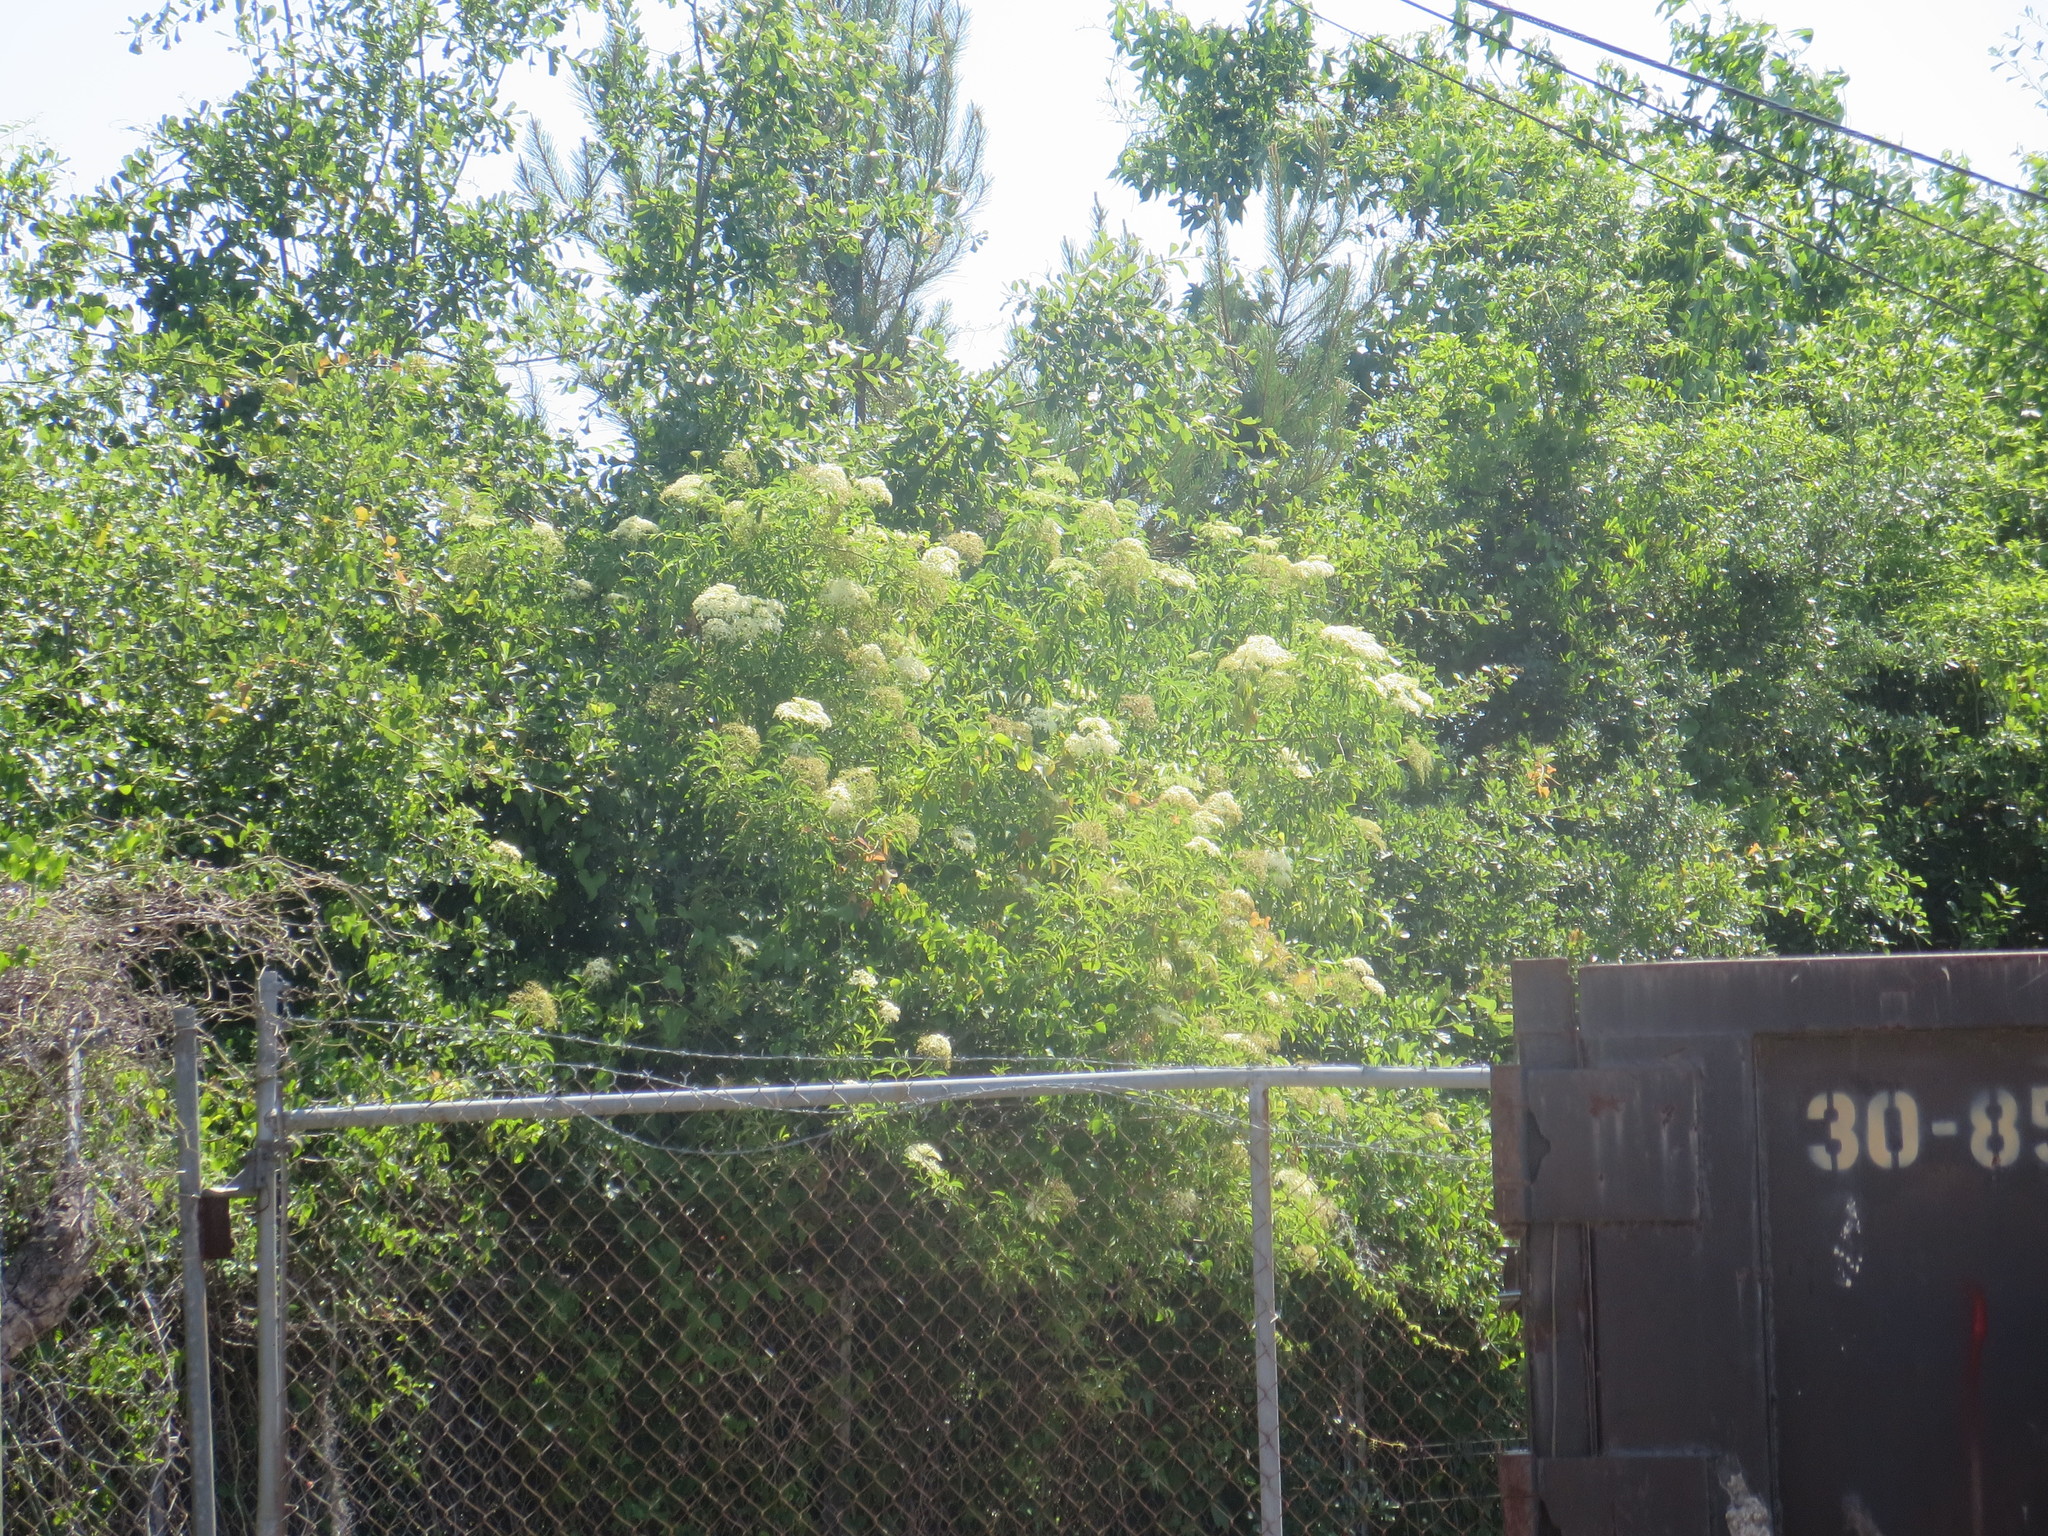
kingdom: Plantae
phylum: Tracheophyta
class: Magnoliopsida
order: Dipsacales
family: Viburnaceae
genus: Sambucus
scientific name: Sambucus canadensis
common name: American elder
